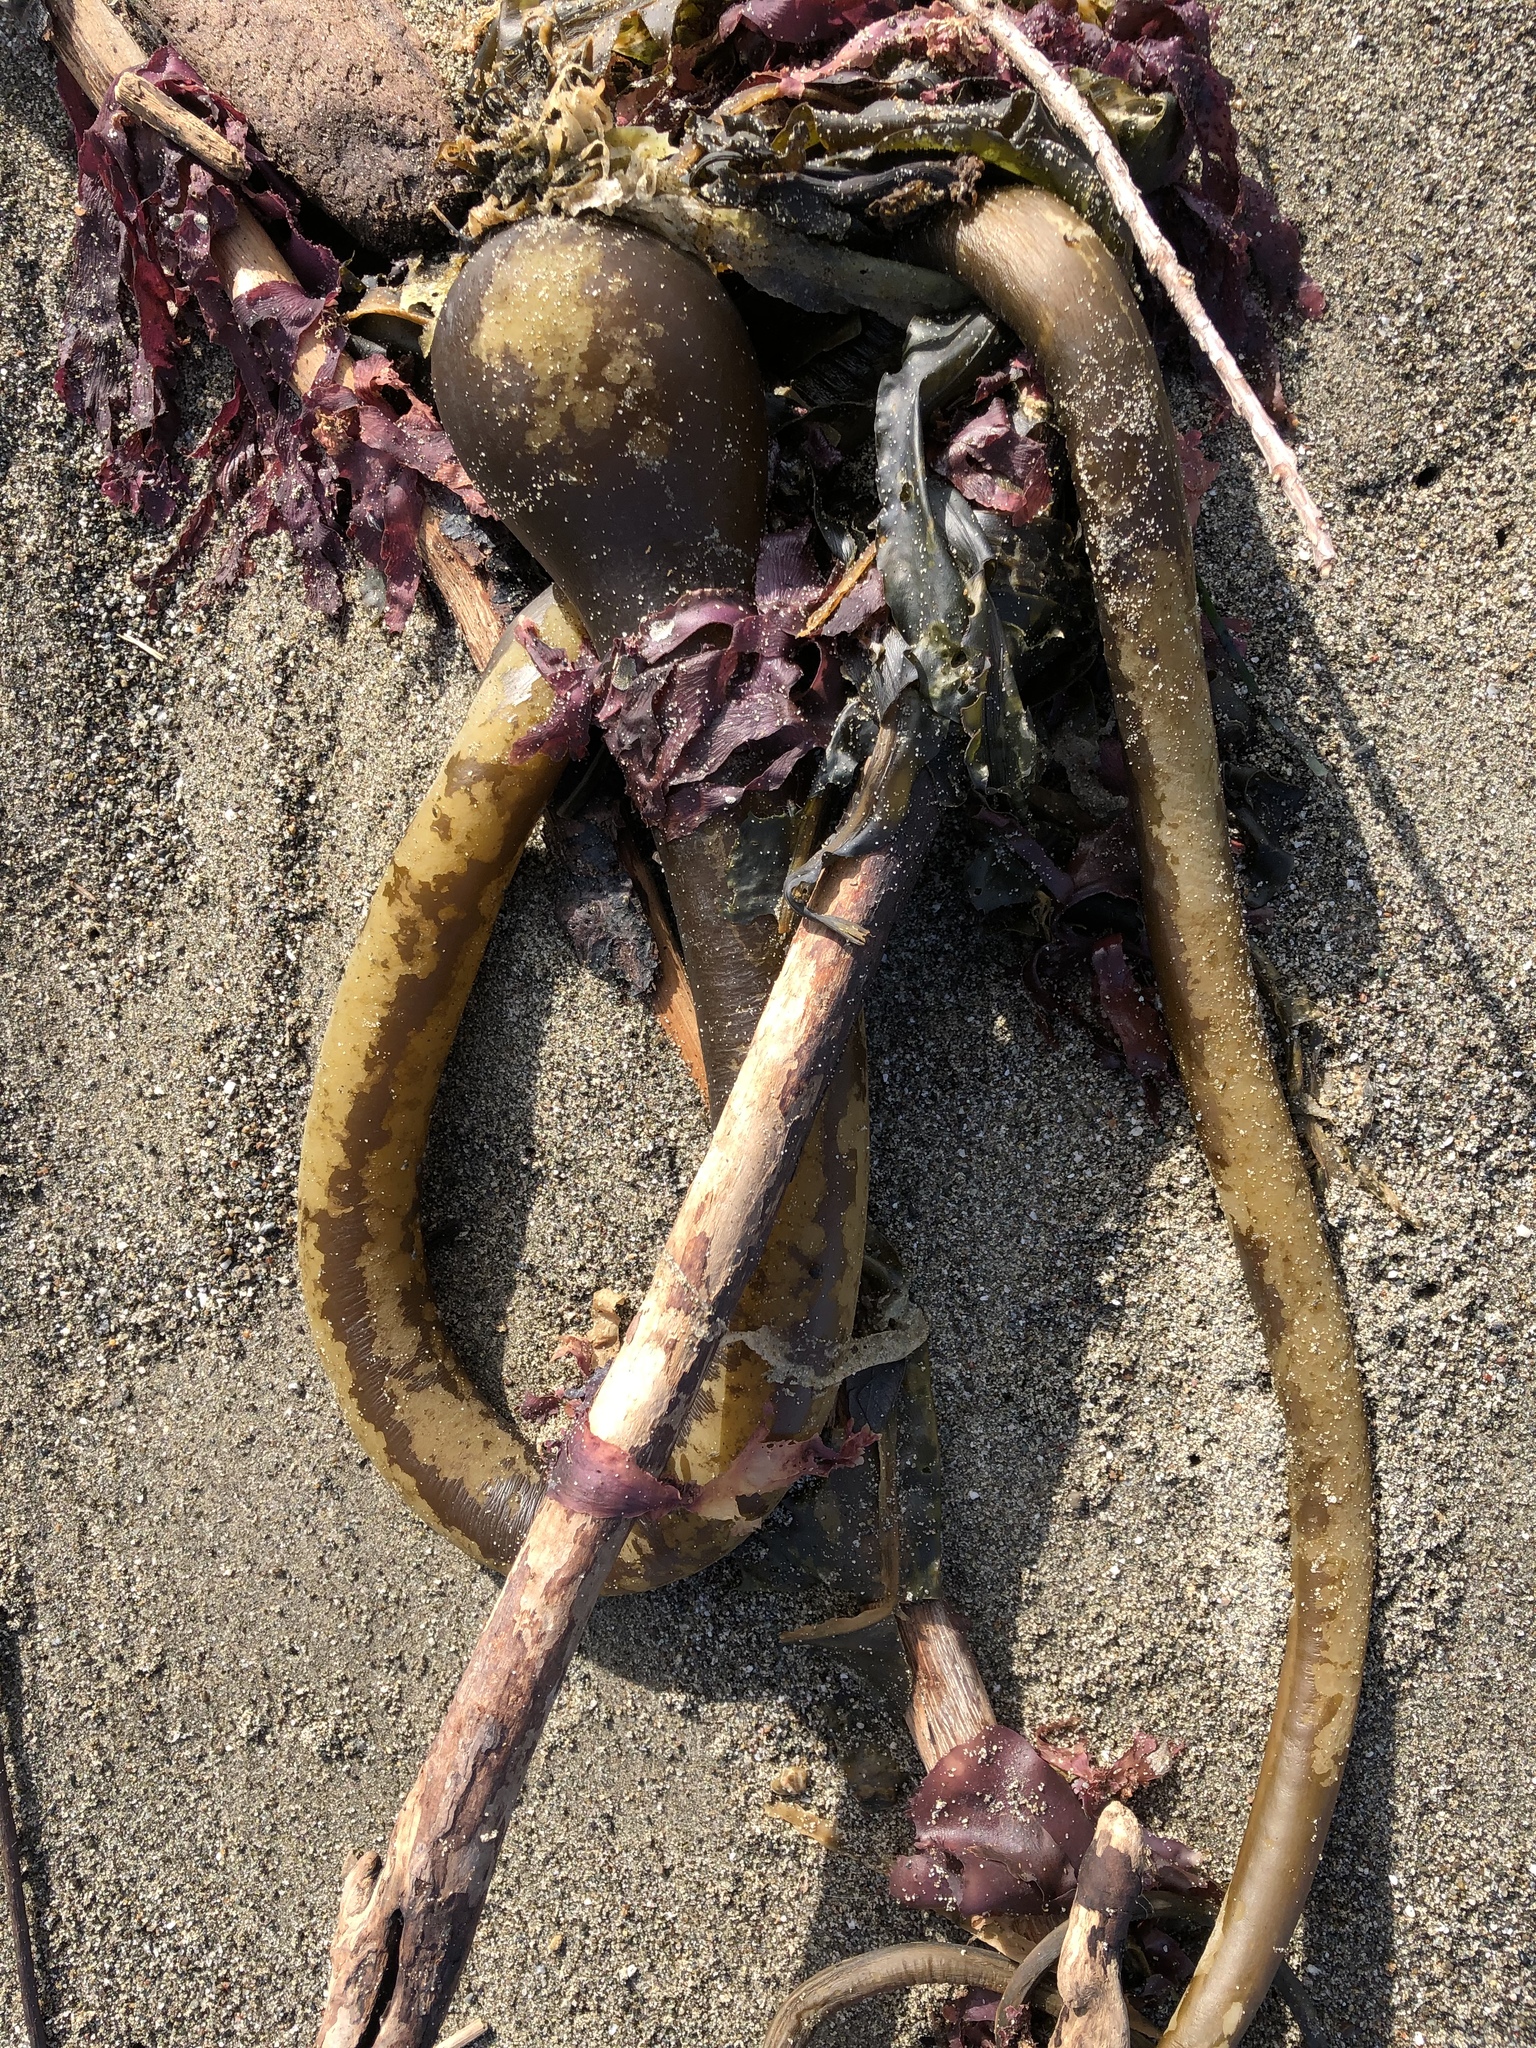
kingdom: Chromista
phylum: Ochrophyta
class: Phaeophyceae
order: Laminariales
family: Laminariaceae
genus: Nereocystis
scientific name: Nereocystis luetkeana
